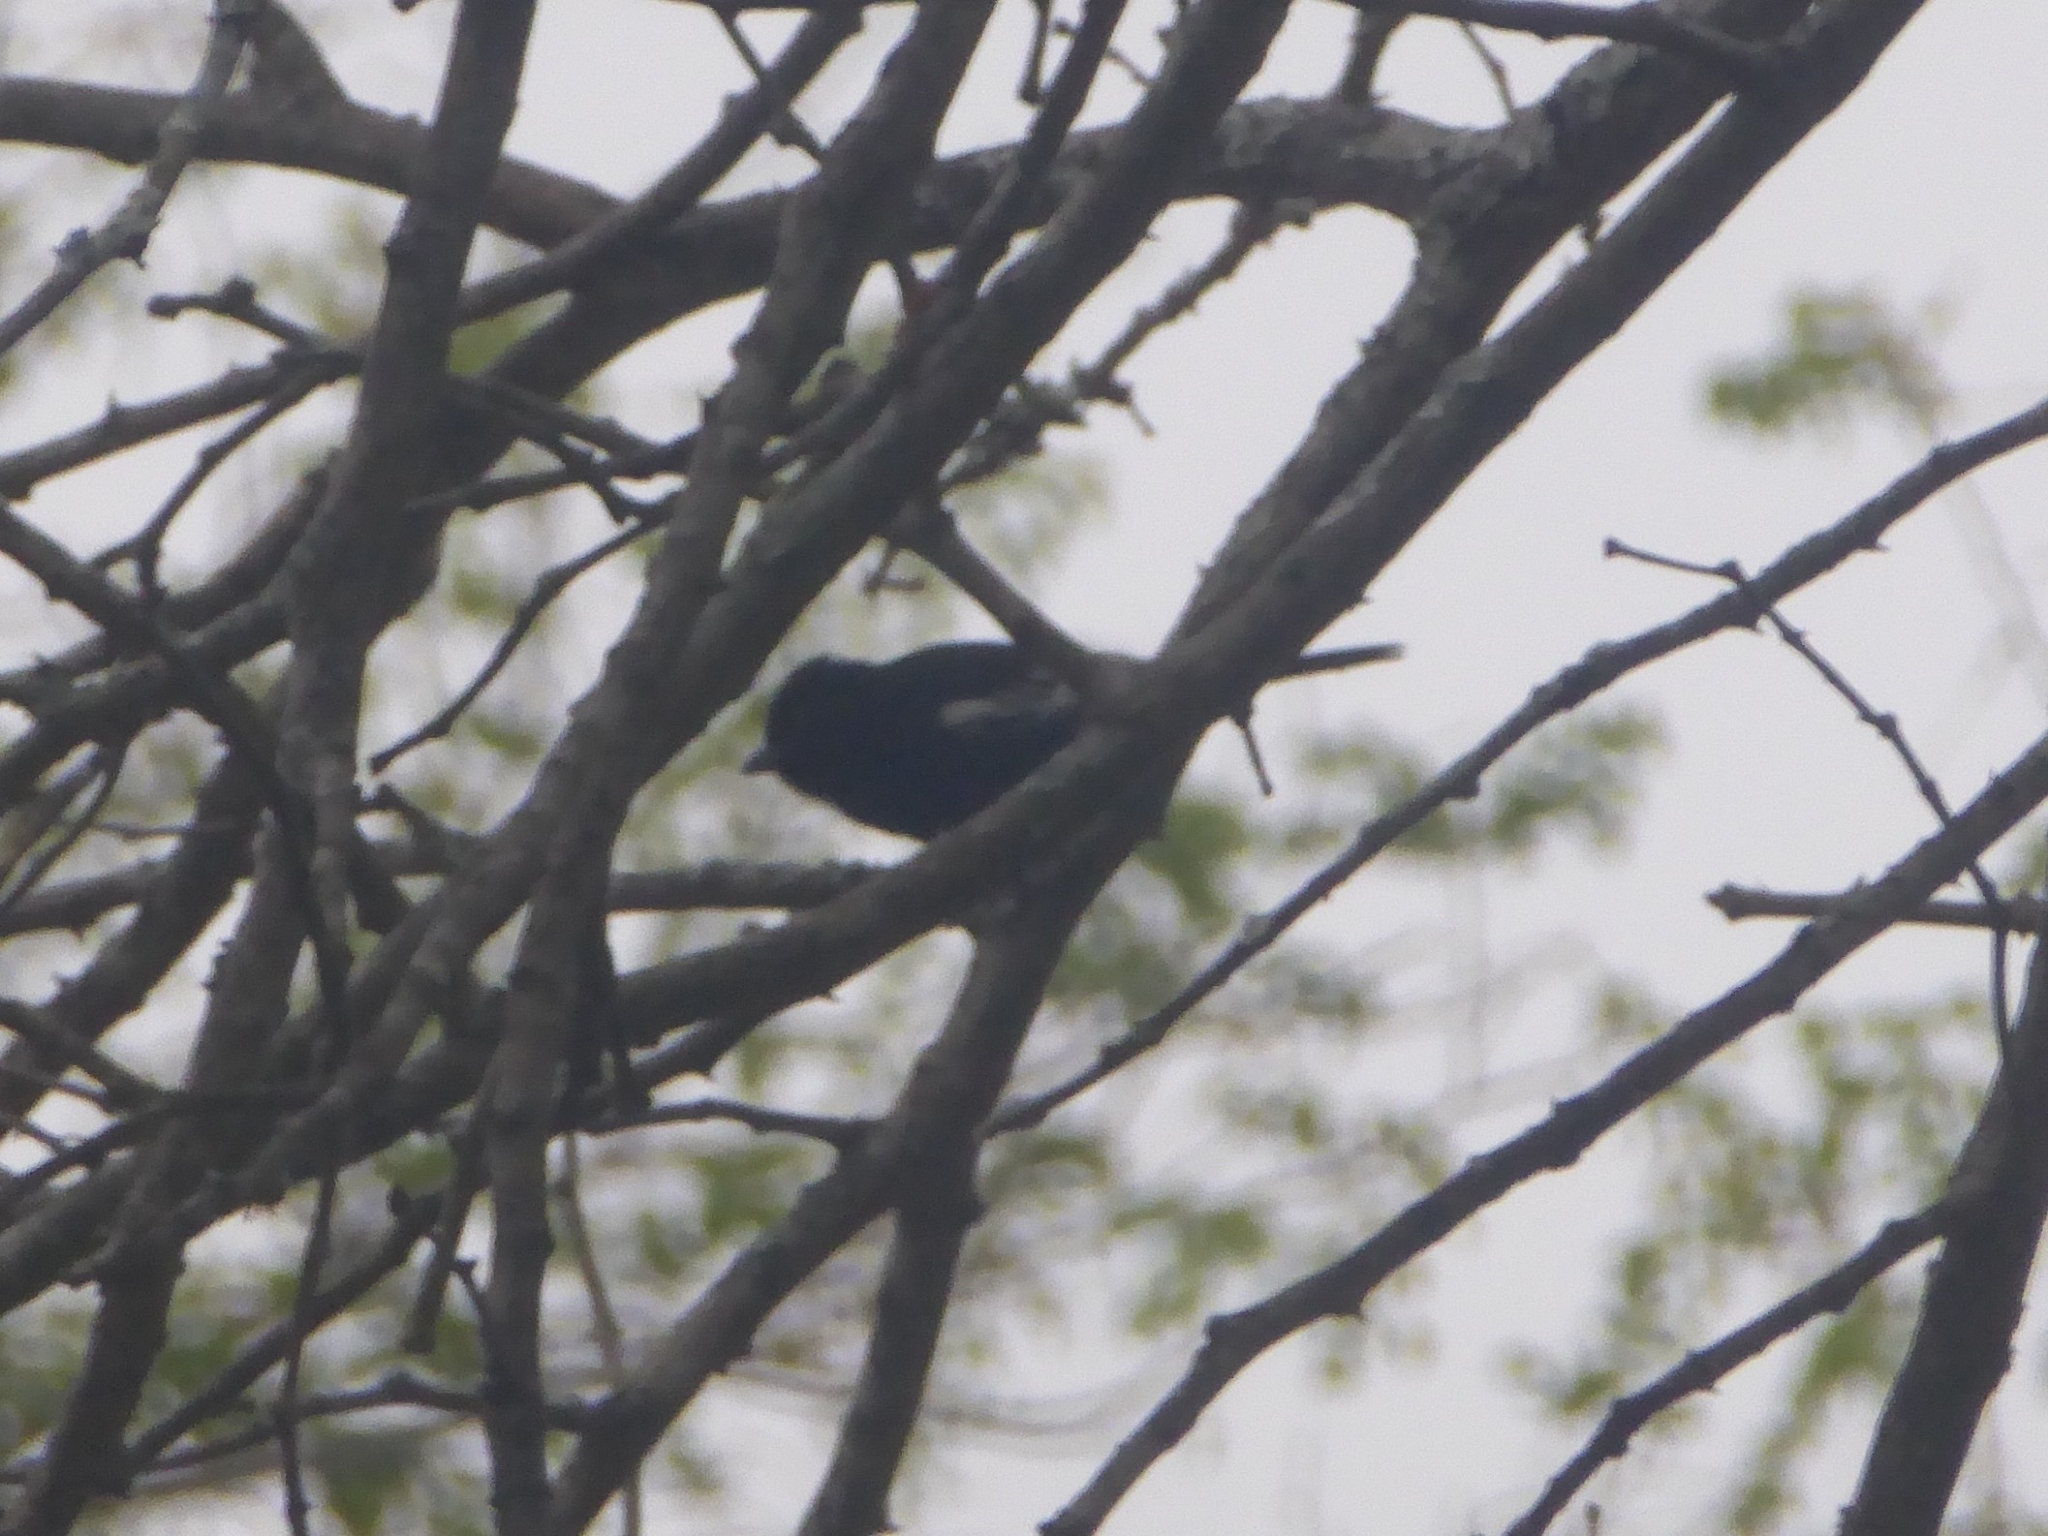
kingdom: Animalia
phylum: Chordata
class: Aves
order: Passeriformes
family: Paridae
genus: Parus
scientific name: Parus niger
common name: Southern black tit
